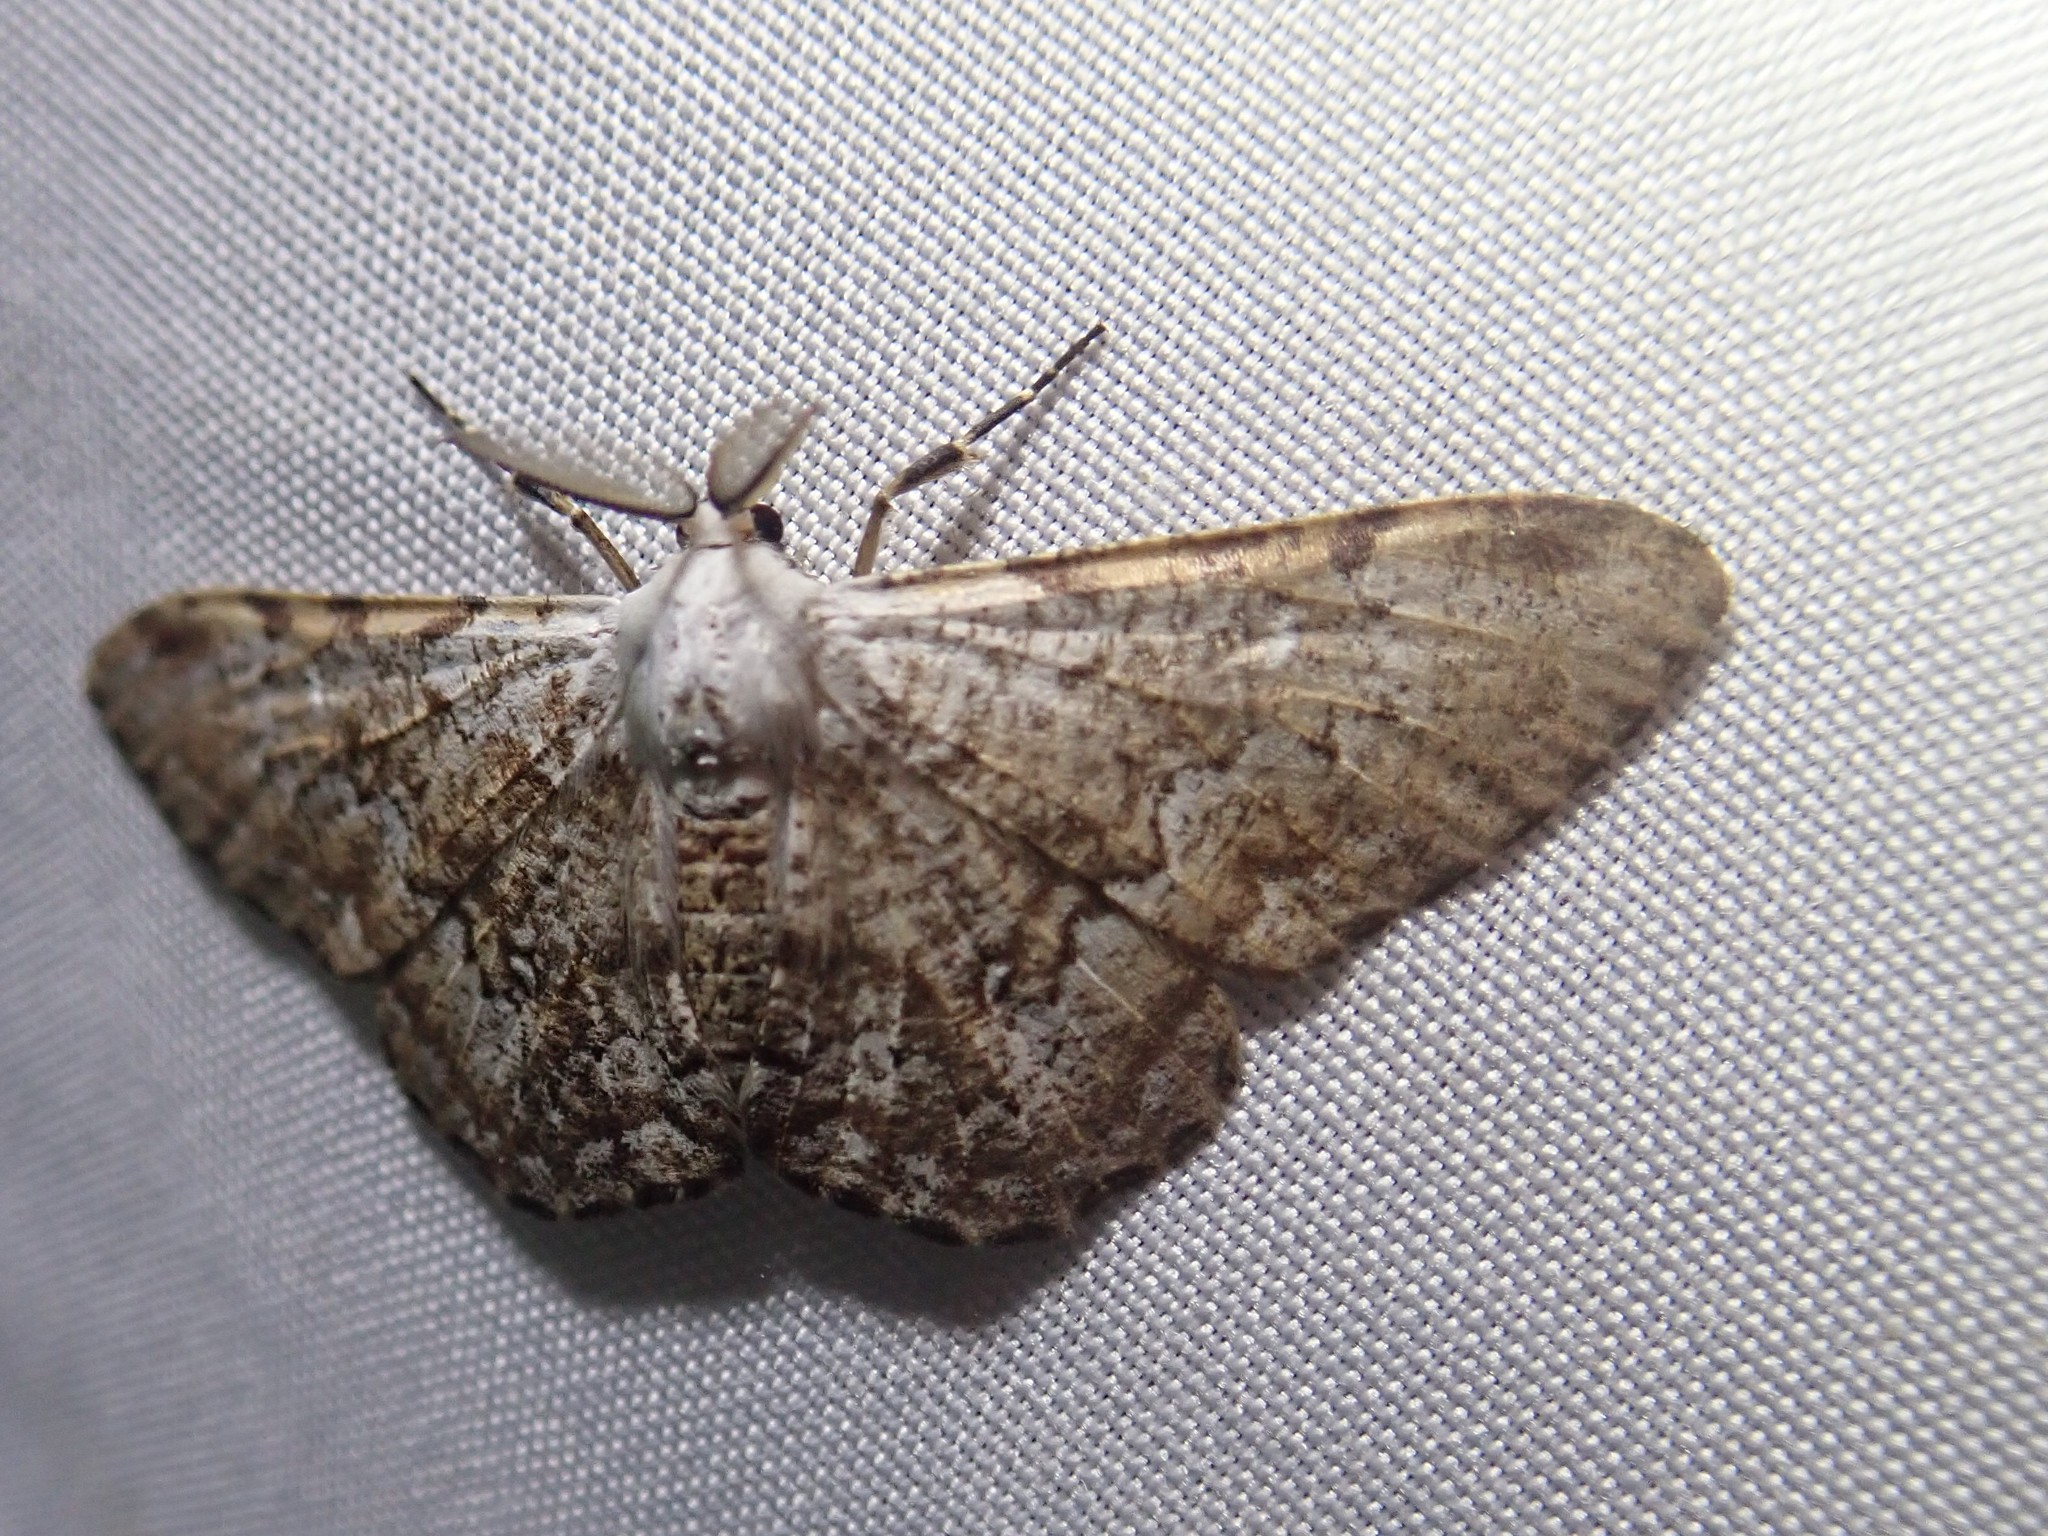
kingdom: Animalia
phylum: Arthropoda
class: Insecta
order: Lepidoptera
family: Geometridae
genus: Thyrinteina
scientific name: Thyrinteina arnobia
